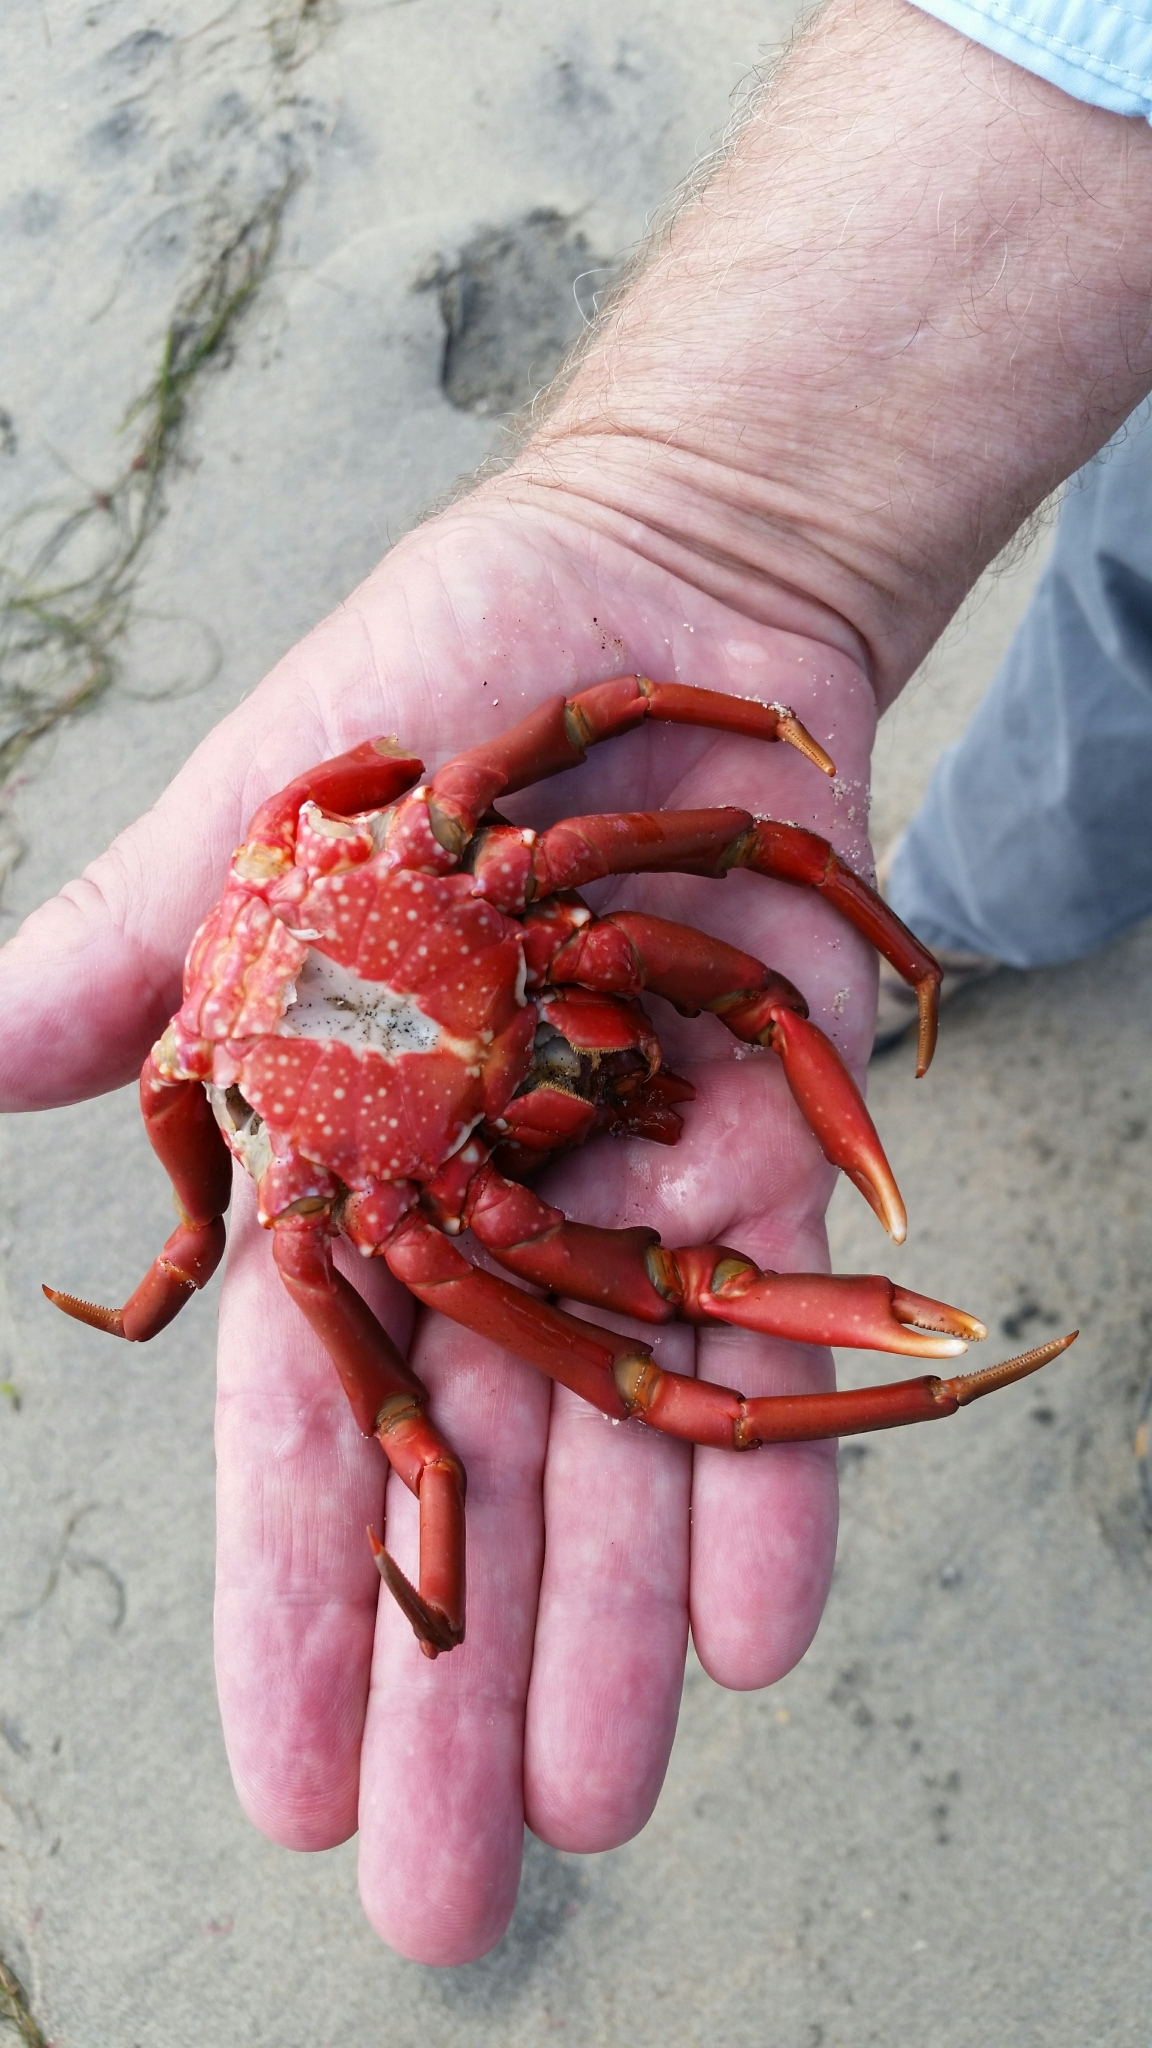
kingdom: Animalia
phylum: Arthropoda
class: Malacostraca
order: Decapoda
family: Epialtidae
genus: Taliepus
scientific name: Taliepus nuttallii
